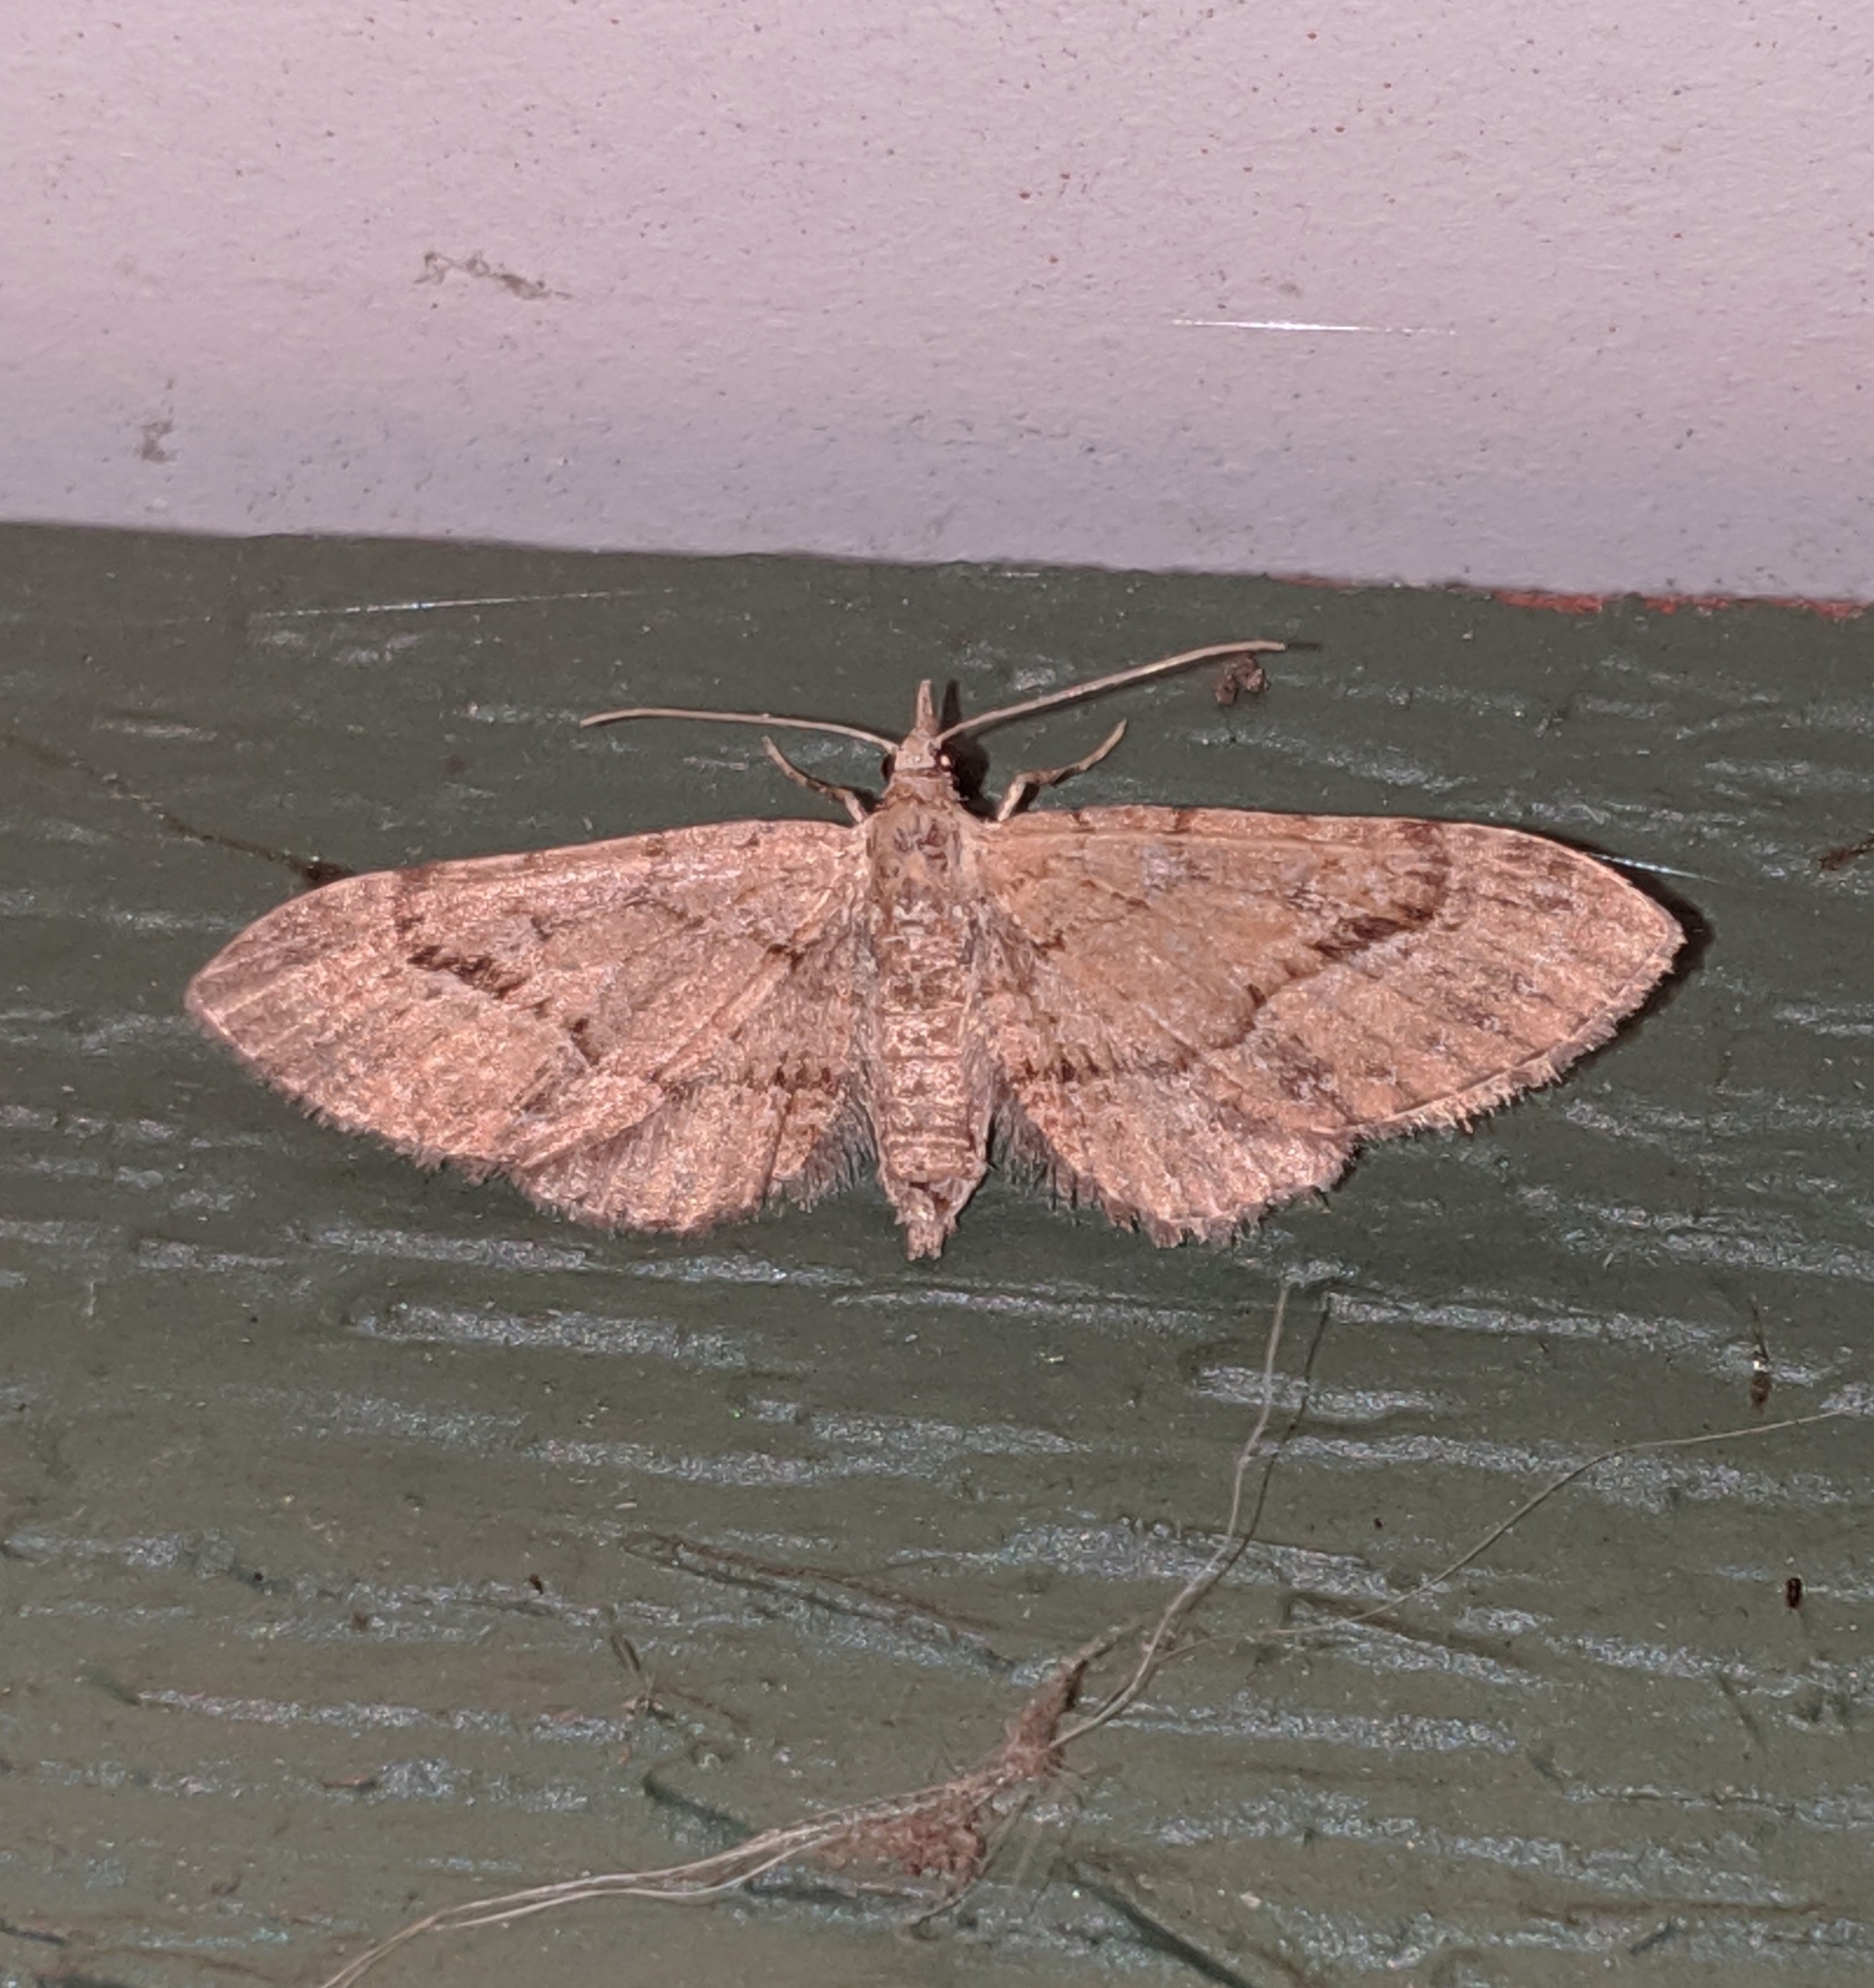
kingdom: Animalia
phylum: Arthropoda
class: Insecta
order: Lepidoptera
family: Geometridae
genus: Eupithecia
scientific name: Eupithecia unicolor
